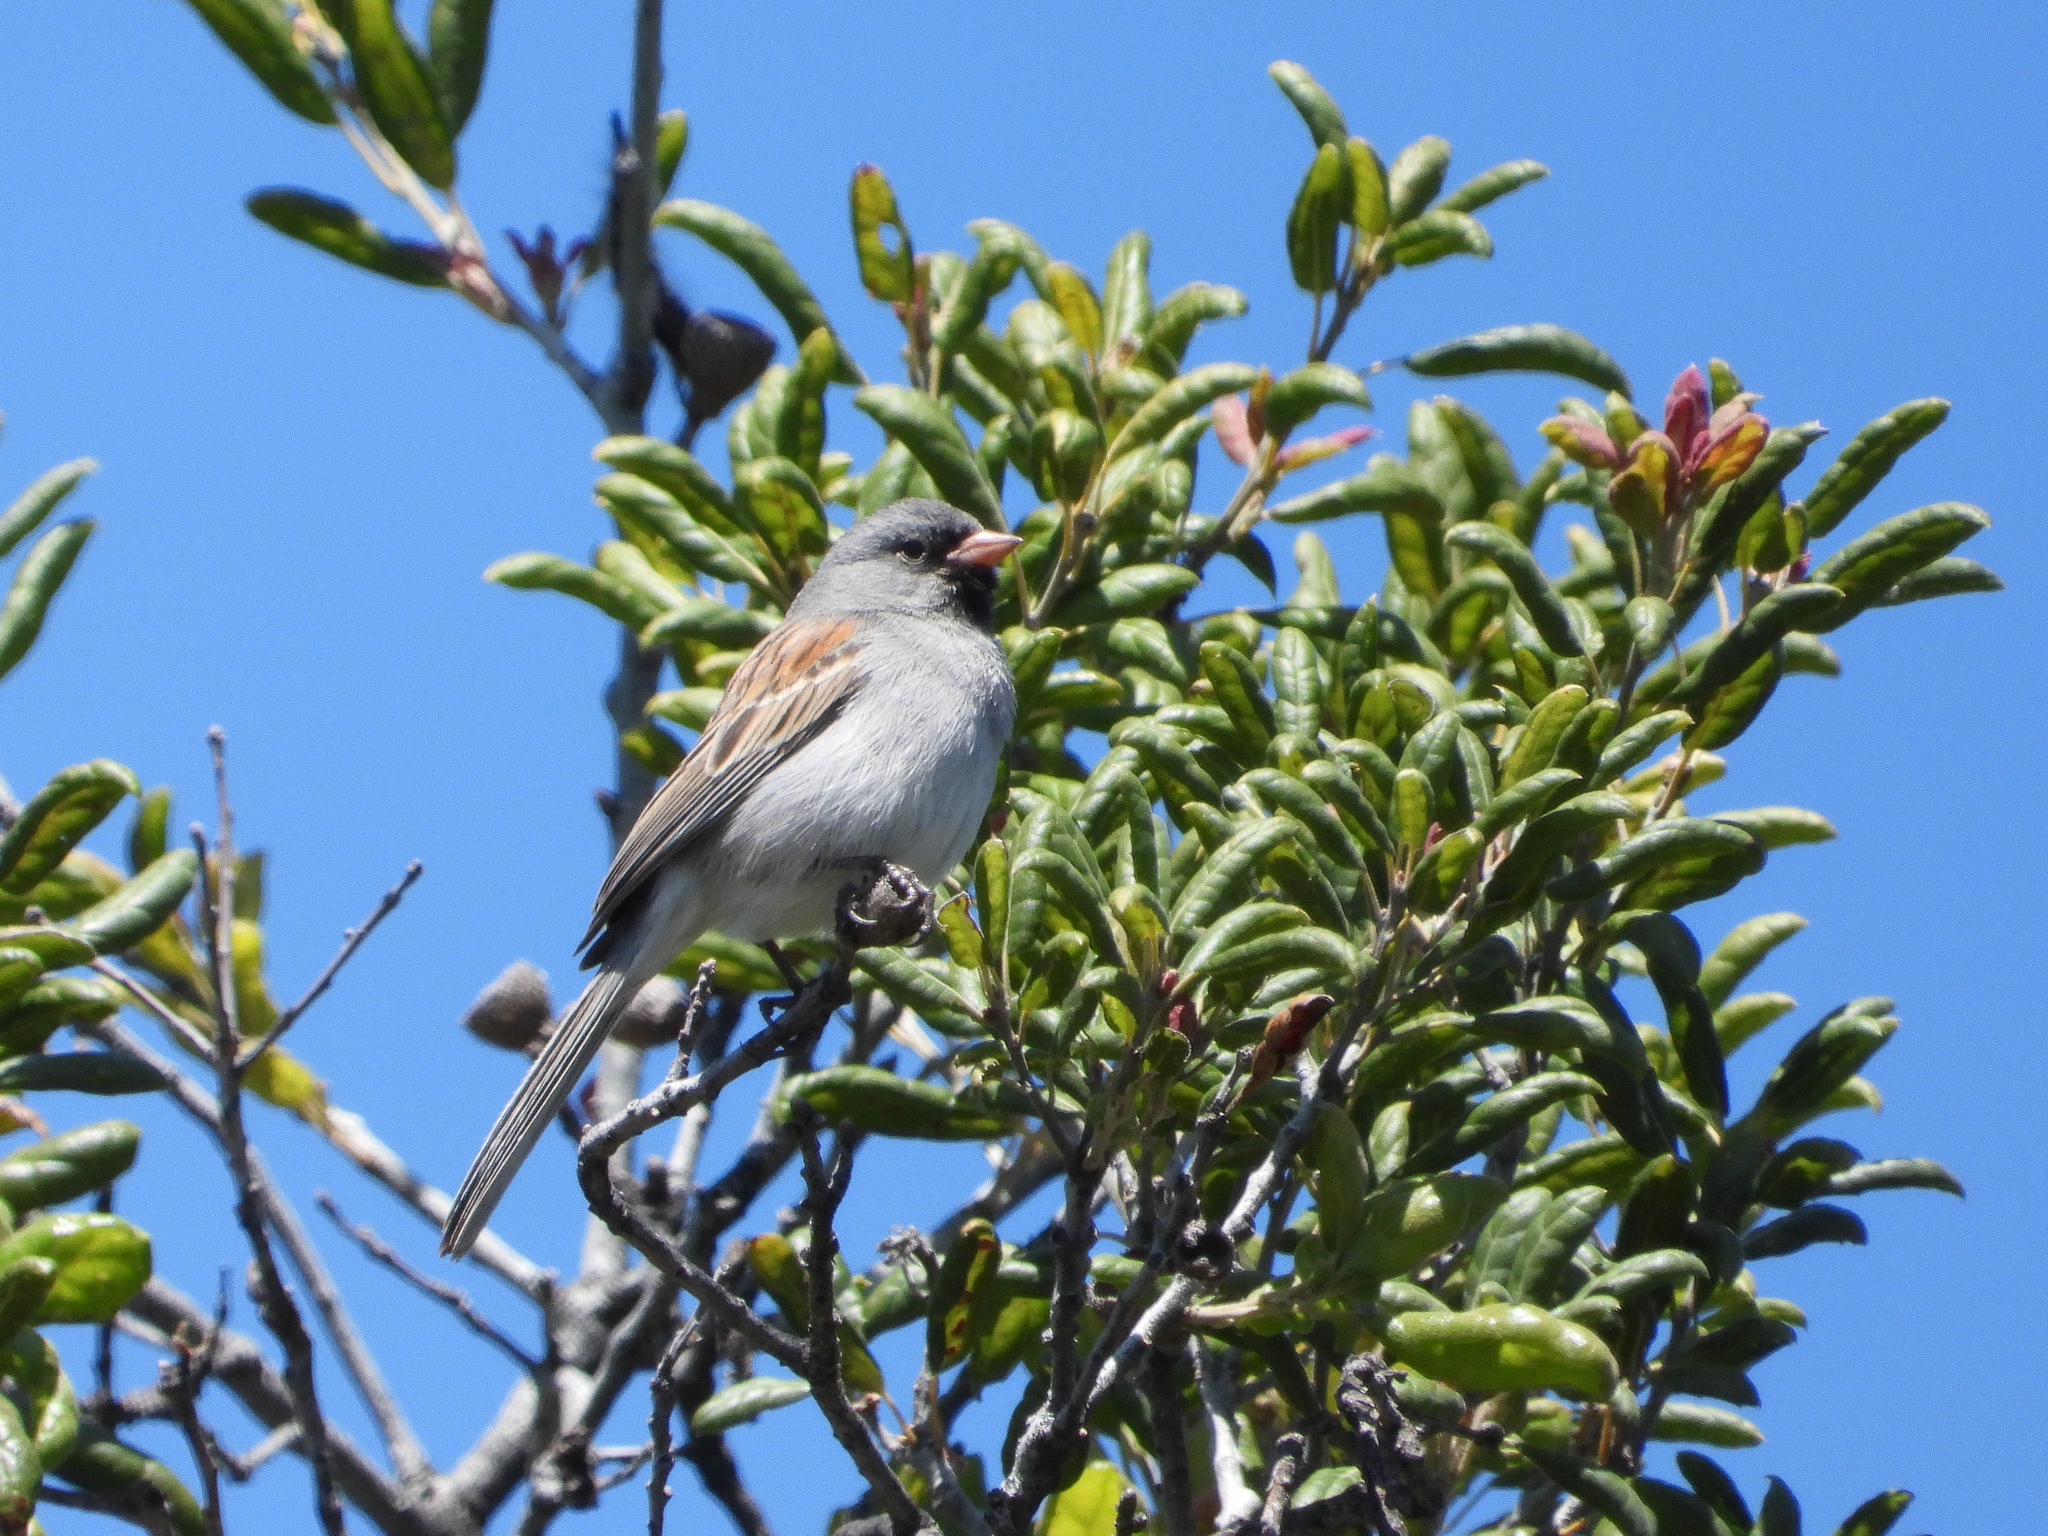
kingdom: Animalia
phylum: Chordata
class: Aves
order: Passeriformes
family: Passerellidae
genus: Spizella
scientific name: Spizella atrogularis
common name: Black-chinned sparrow
